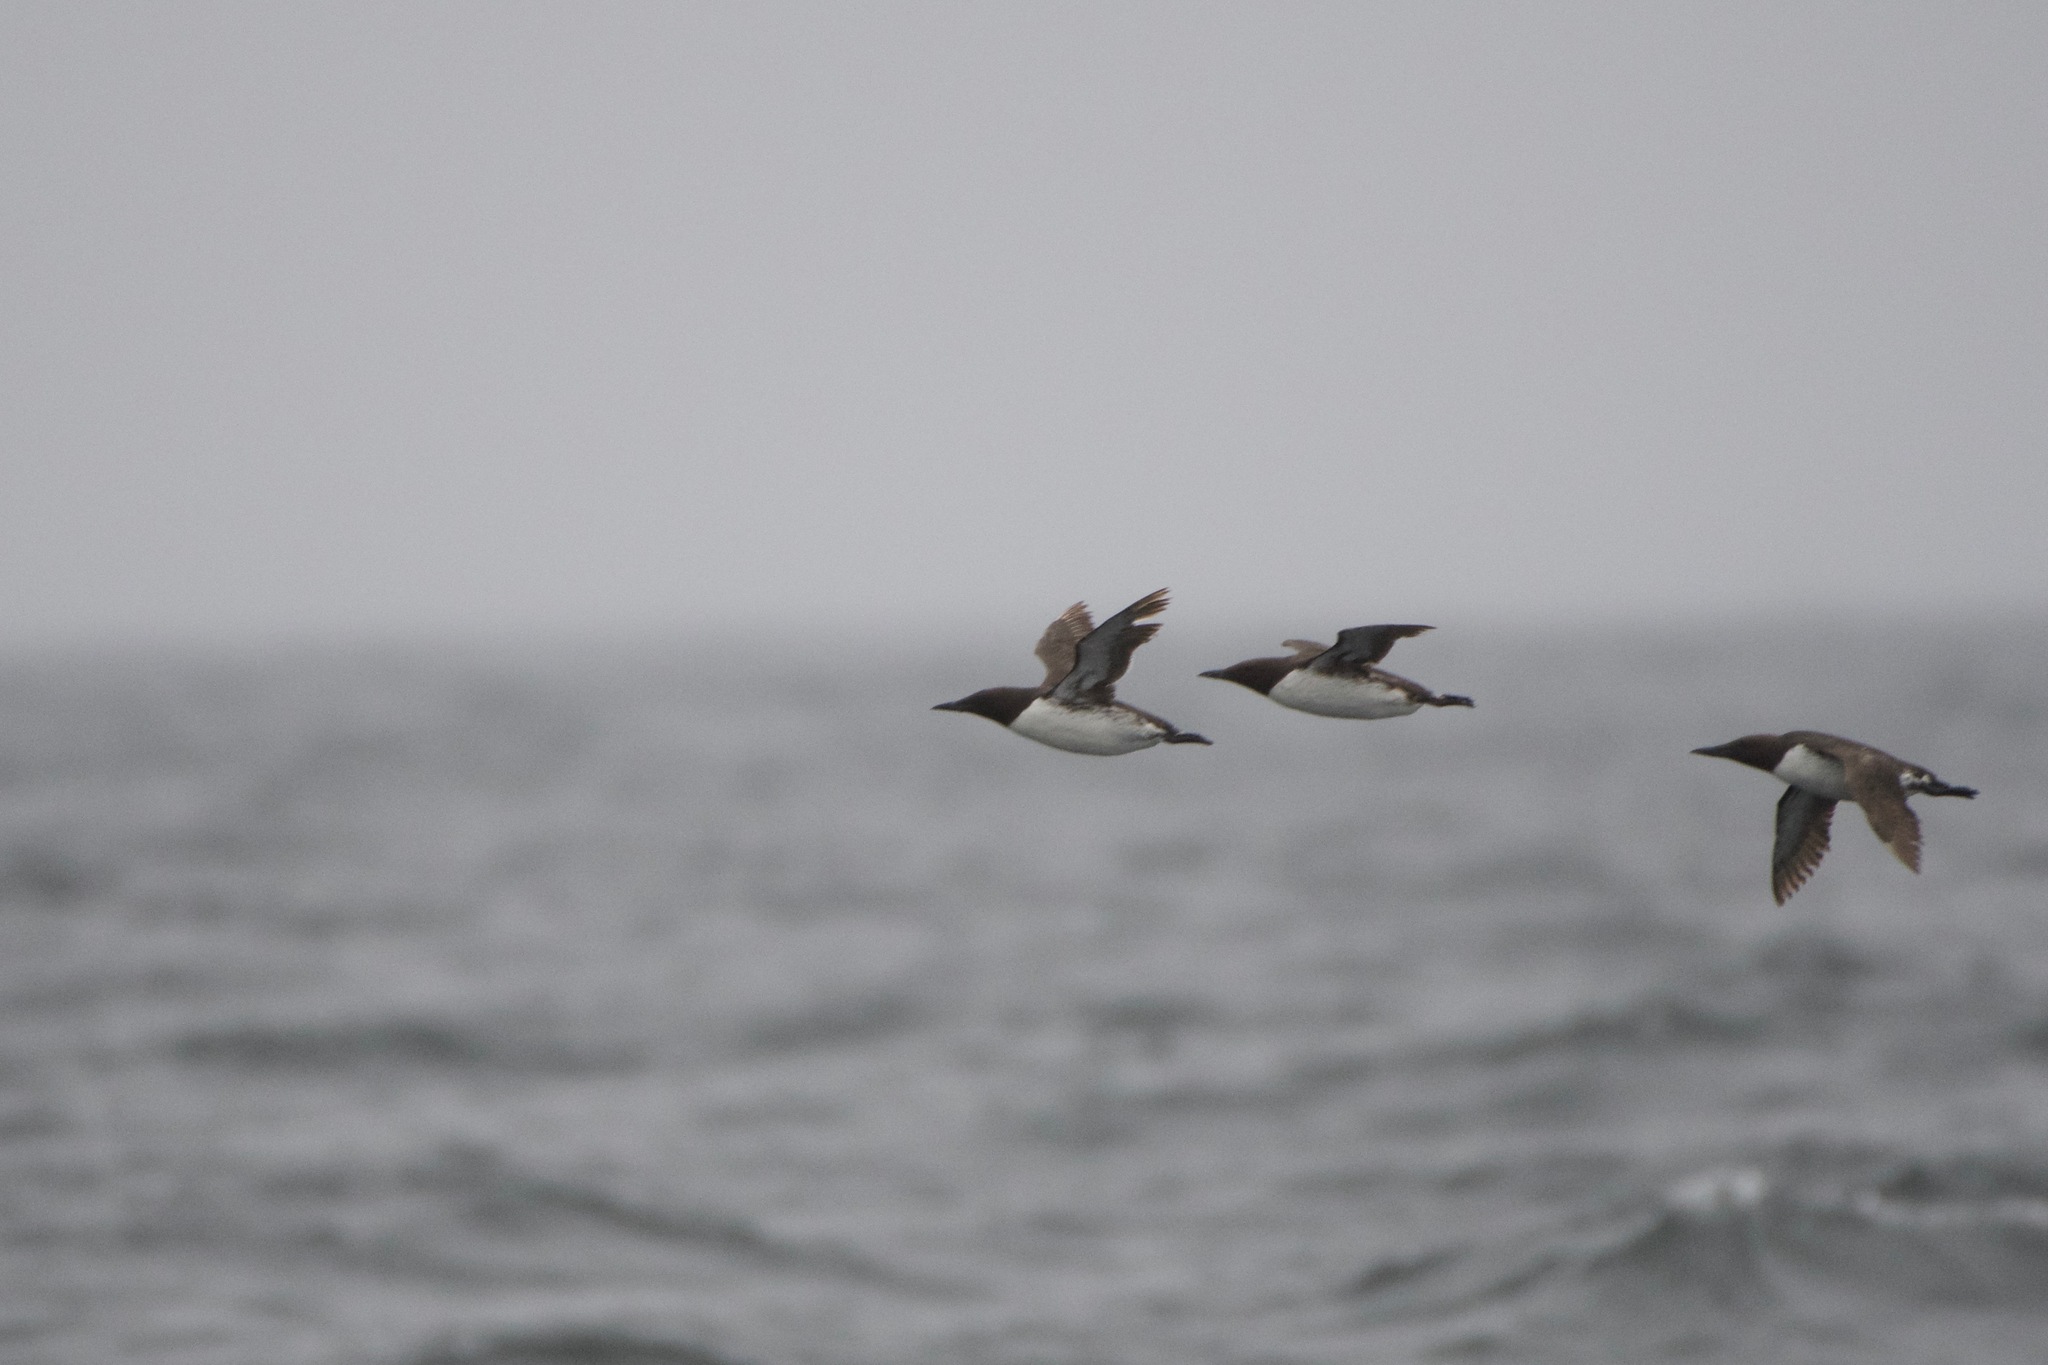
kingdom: Animalia
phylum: Chordata
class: Aves
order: Charadriiformes
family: Alcidae
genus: Uria
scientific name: Uria aalge
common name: Common murre
